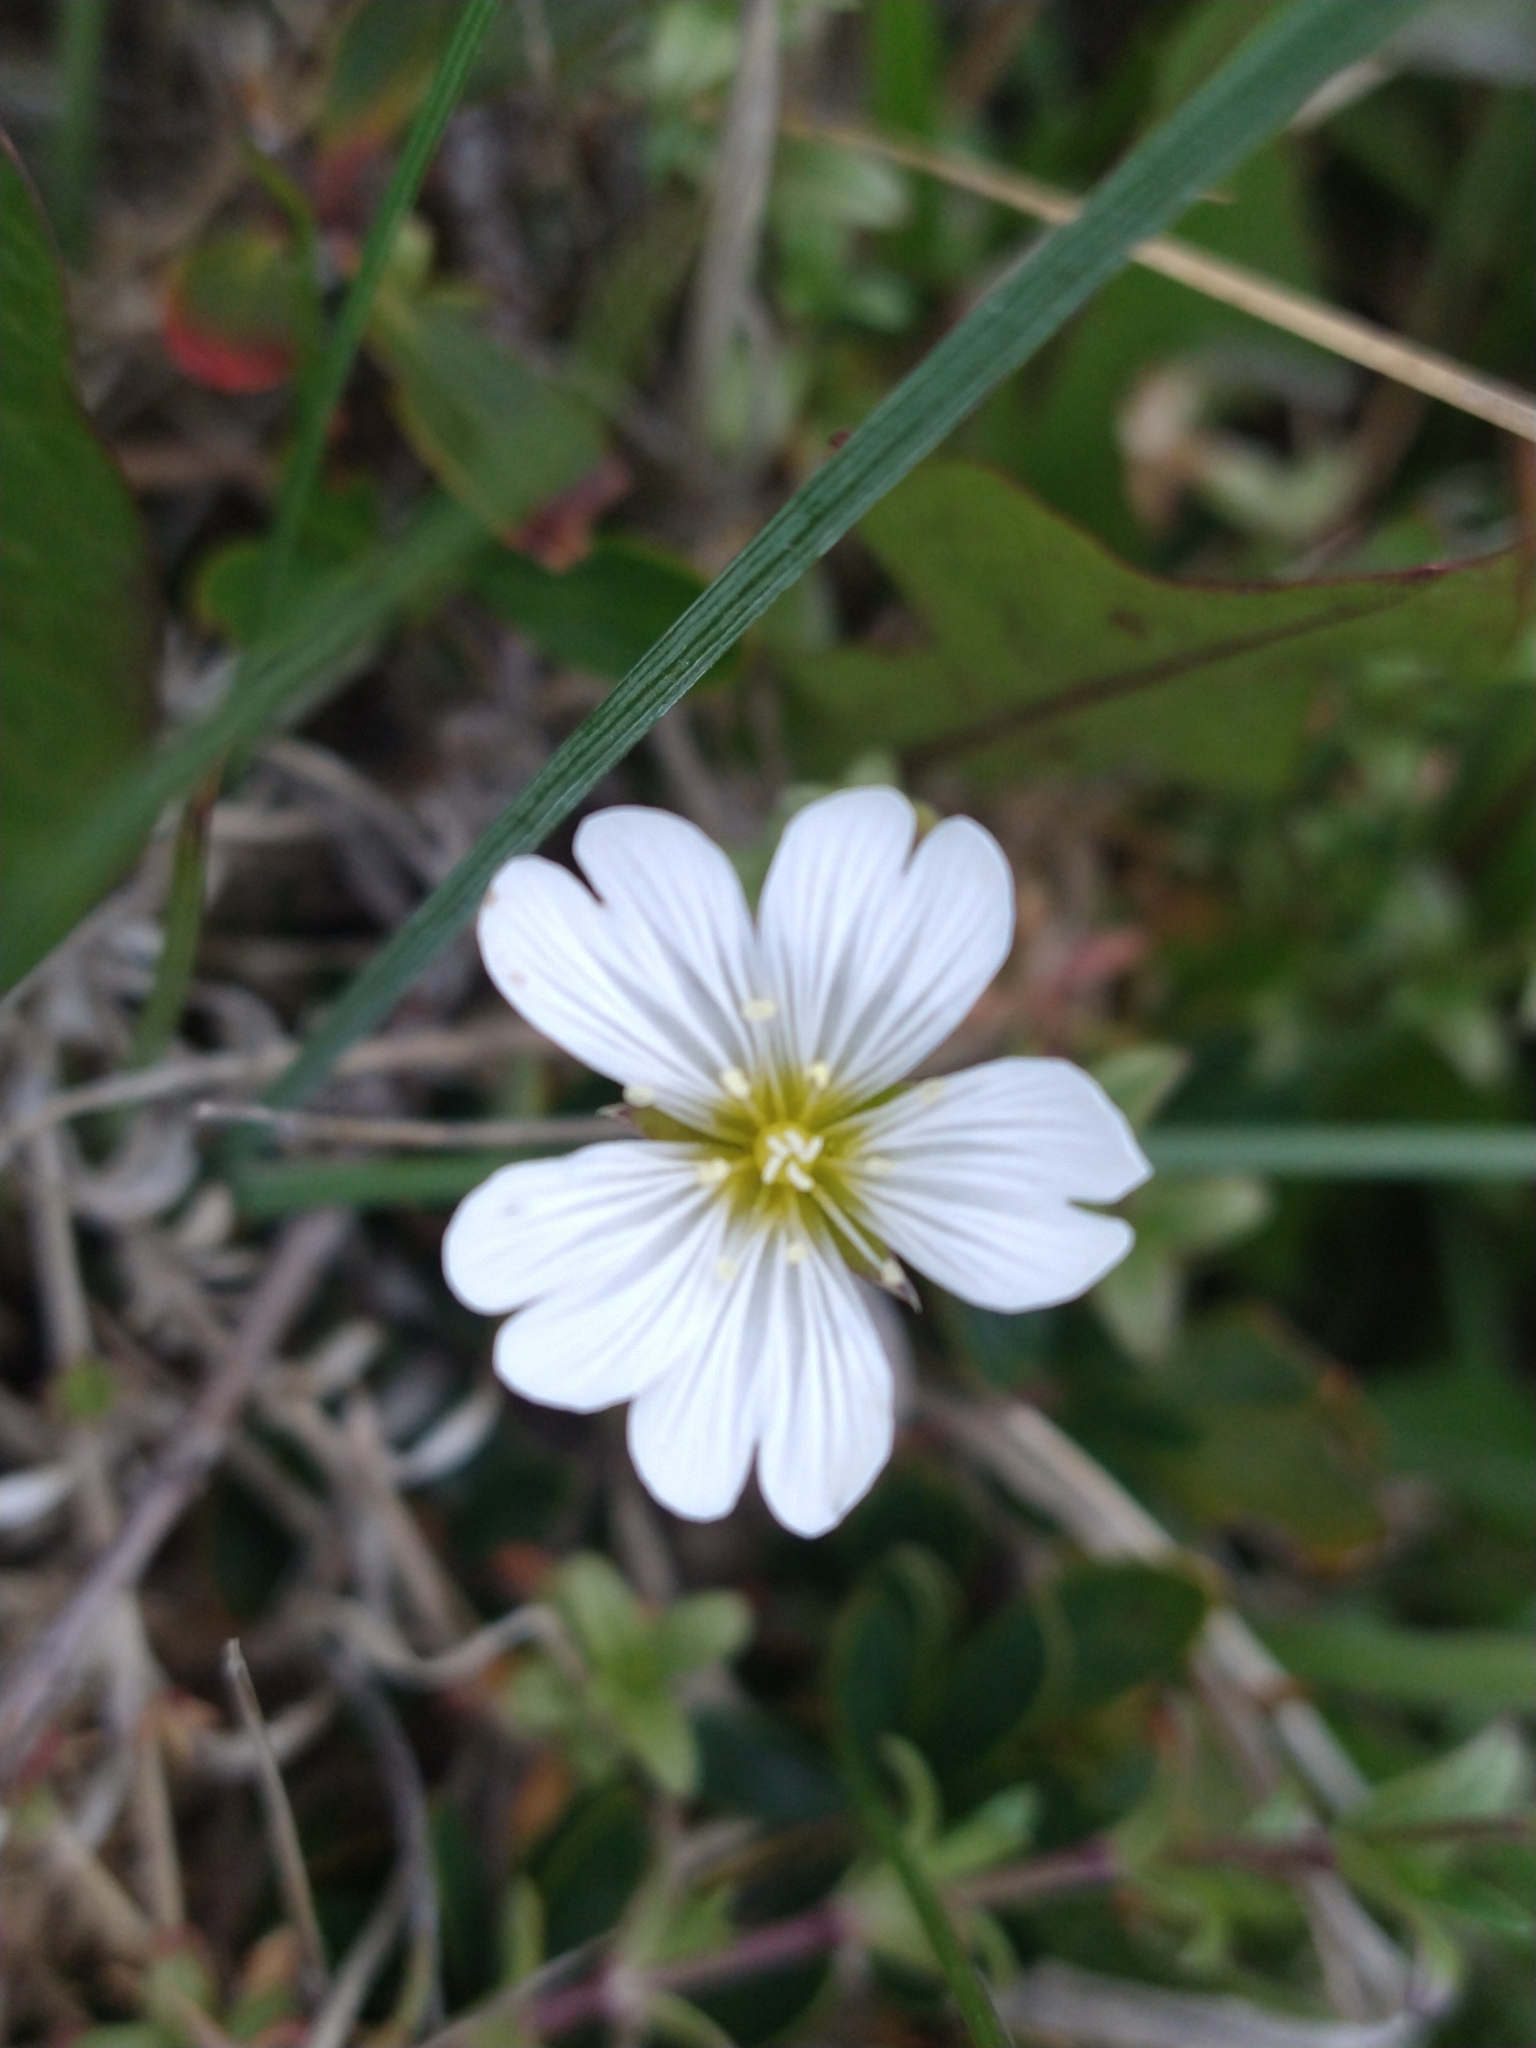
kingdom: Plantae
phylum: Tracheophyta
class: Magnoliopsida
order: Caryophyllales
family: Caryophyllaceae
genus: Cerastium
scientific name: Cerastium arvense
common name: Field mouse-ear
